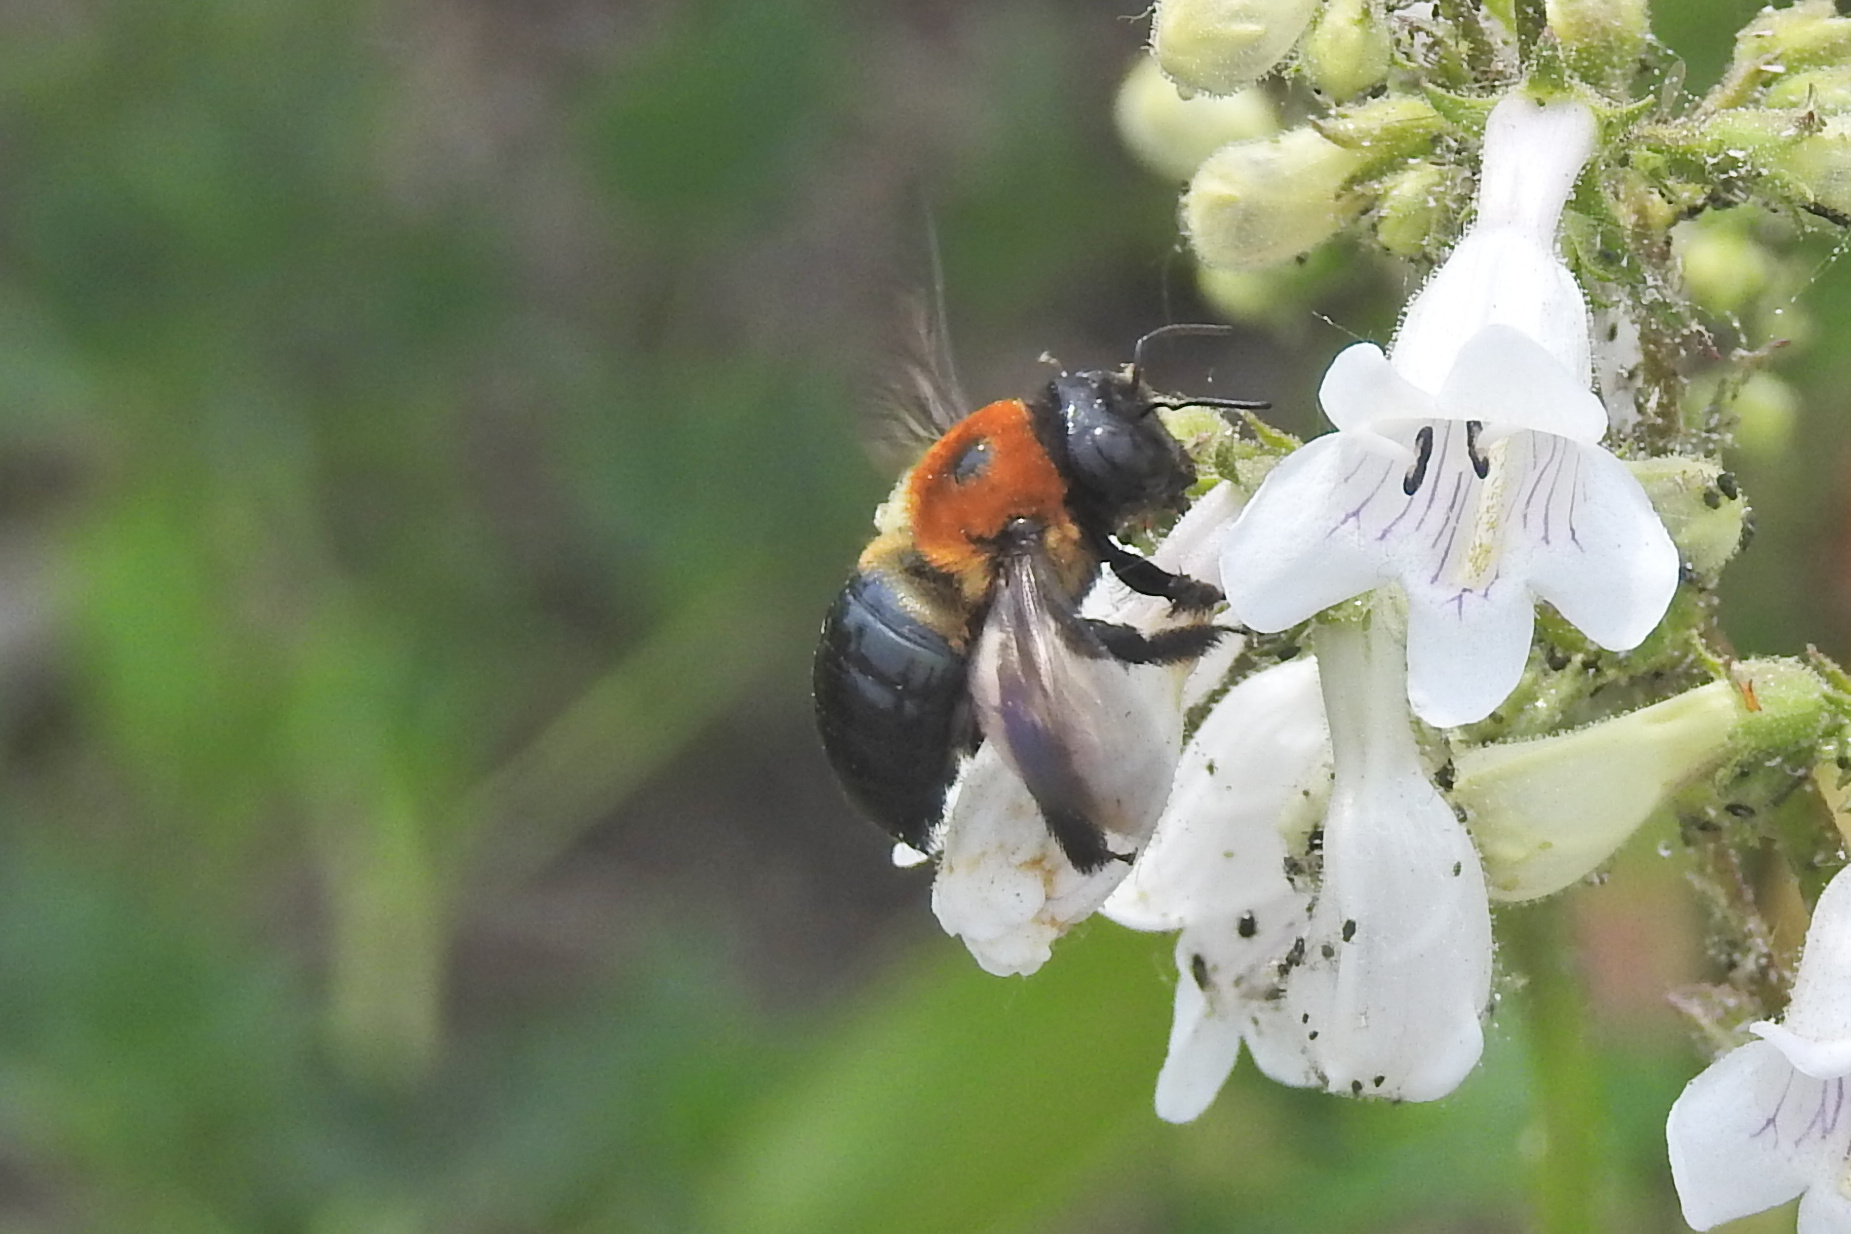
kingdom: Animalia
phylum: Arthropoda
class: Insecta
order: Hymenoptera
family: Apidae
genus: Xylocopa
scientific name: Xylocopa virginica
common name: Carpenter bee
